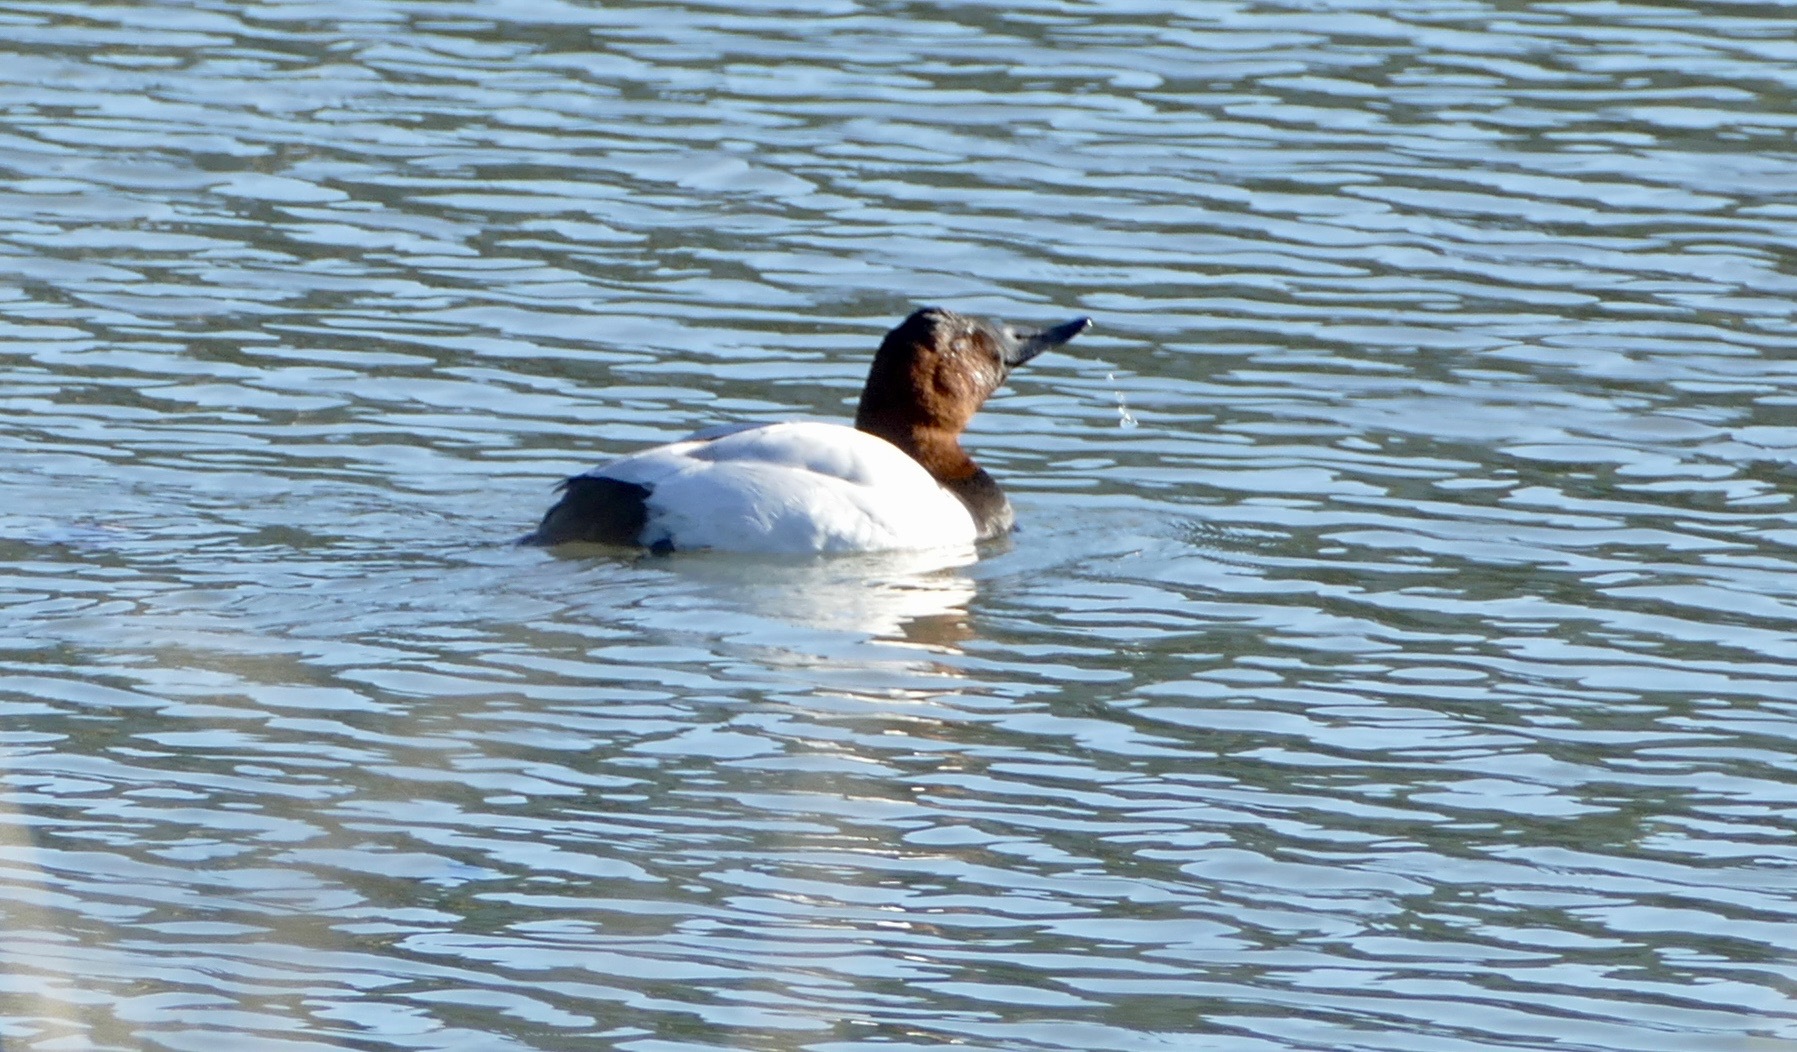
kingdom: Animalia
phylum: Chordata
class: Aves
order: Anseriformes
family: Anatidae
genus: Aythya
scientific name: Aythya valisineria
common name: Canvasback
